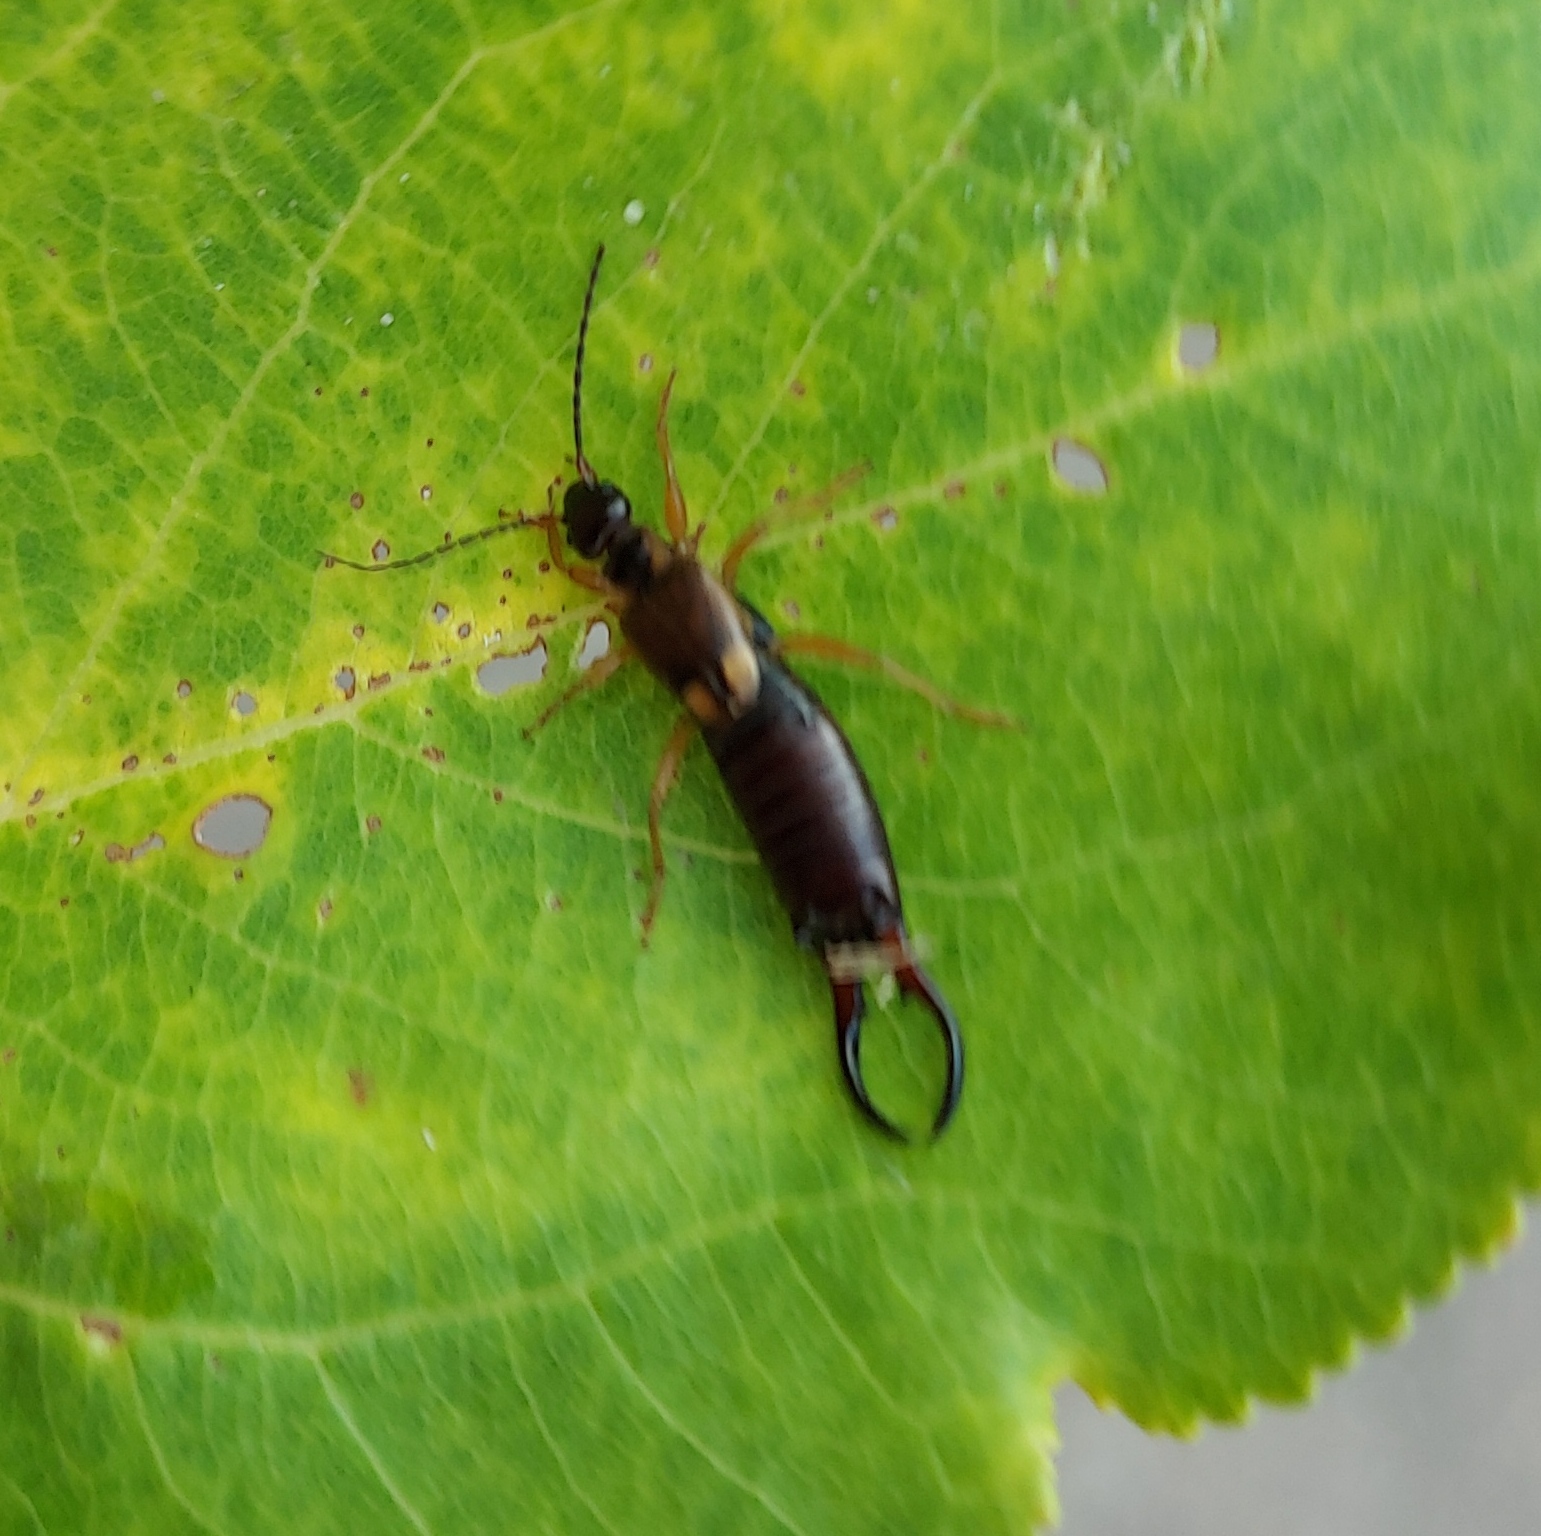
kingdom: Animalia
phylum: Arthropoda
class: Insecta
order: Dermaptera
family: Forficulidae
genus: Forficula
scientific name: Forficula
